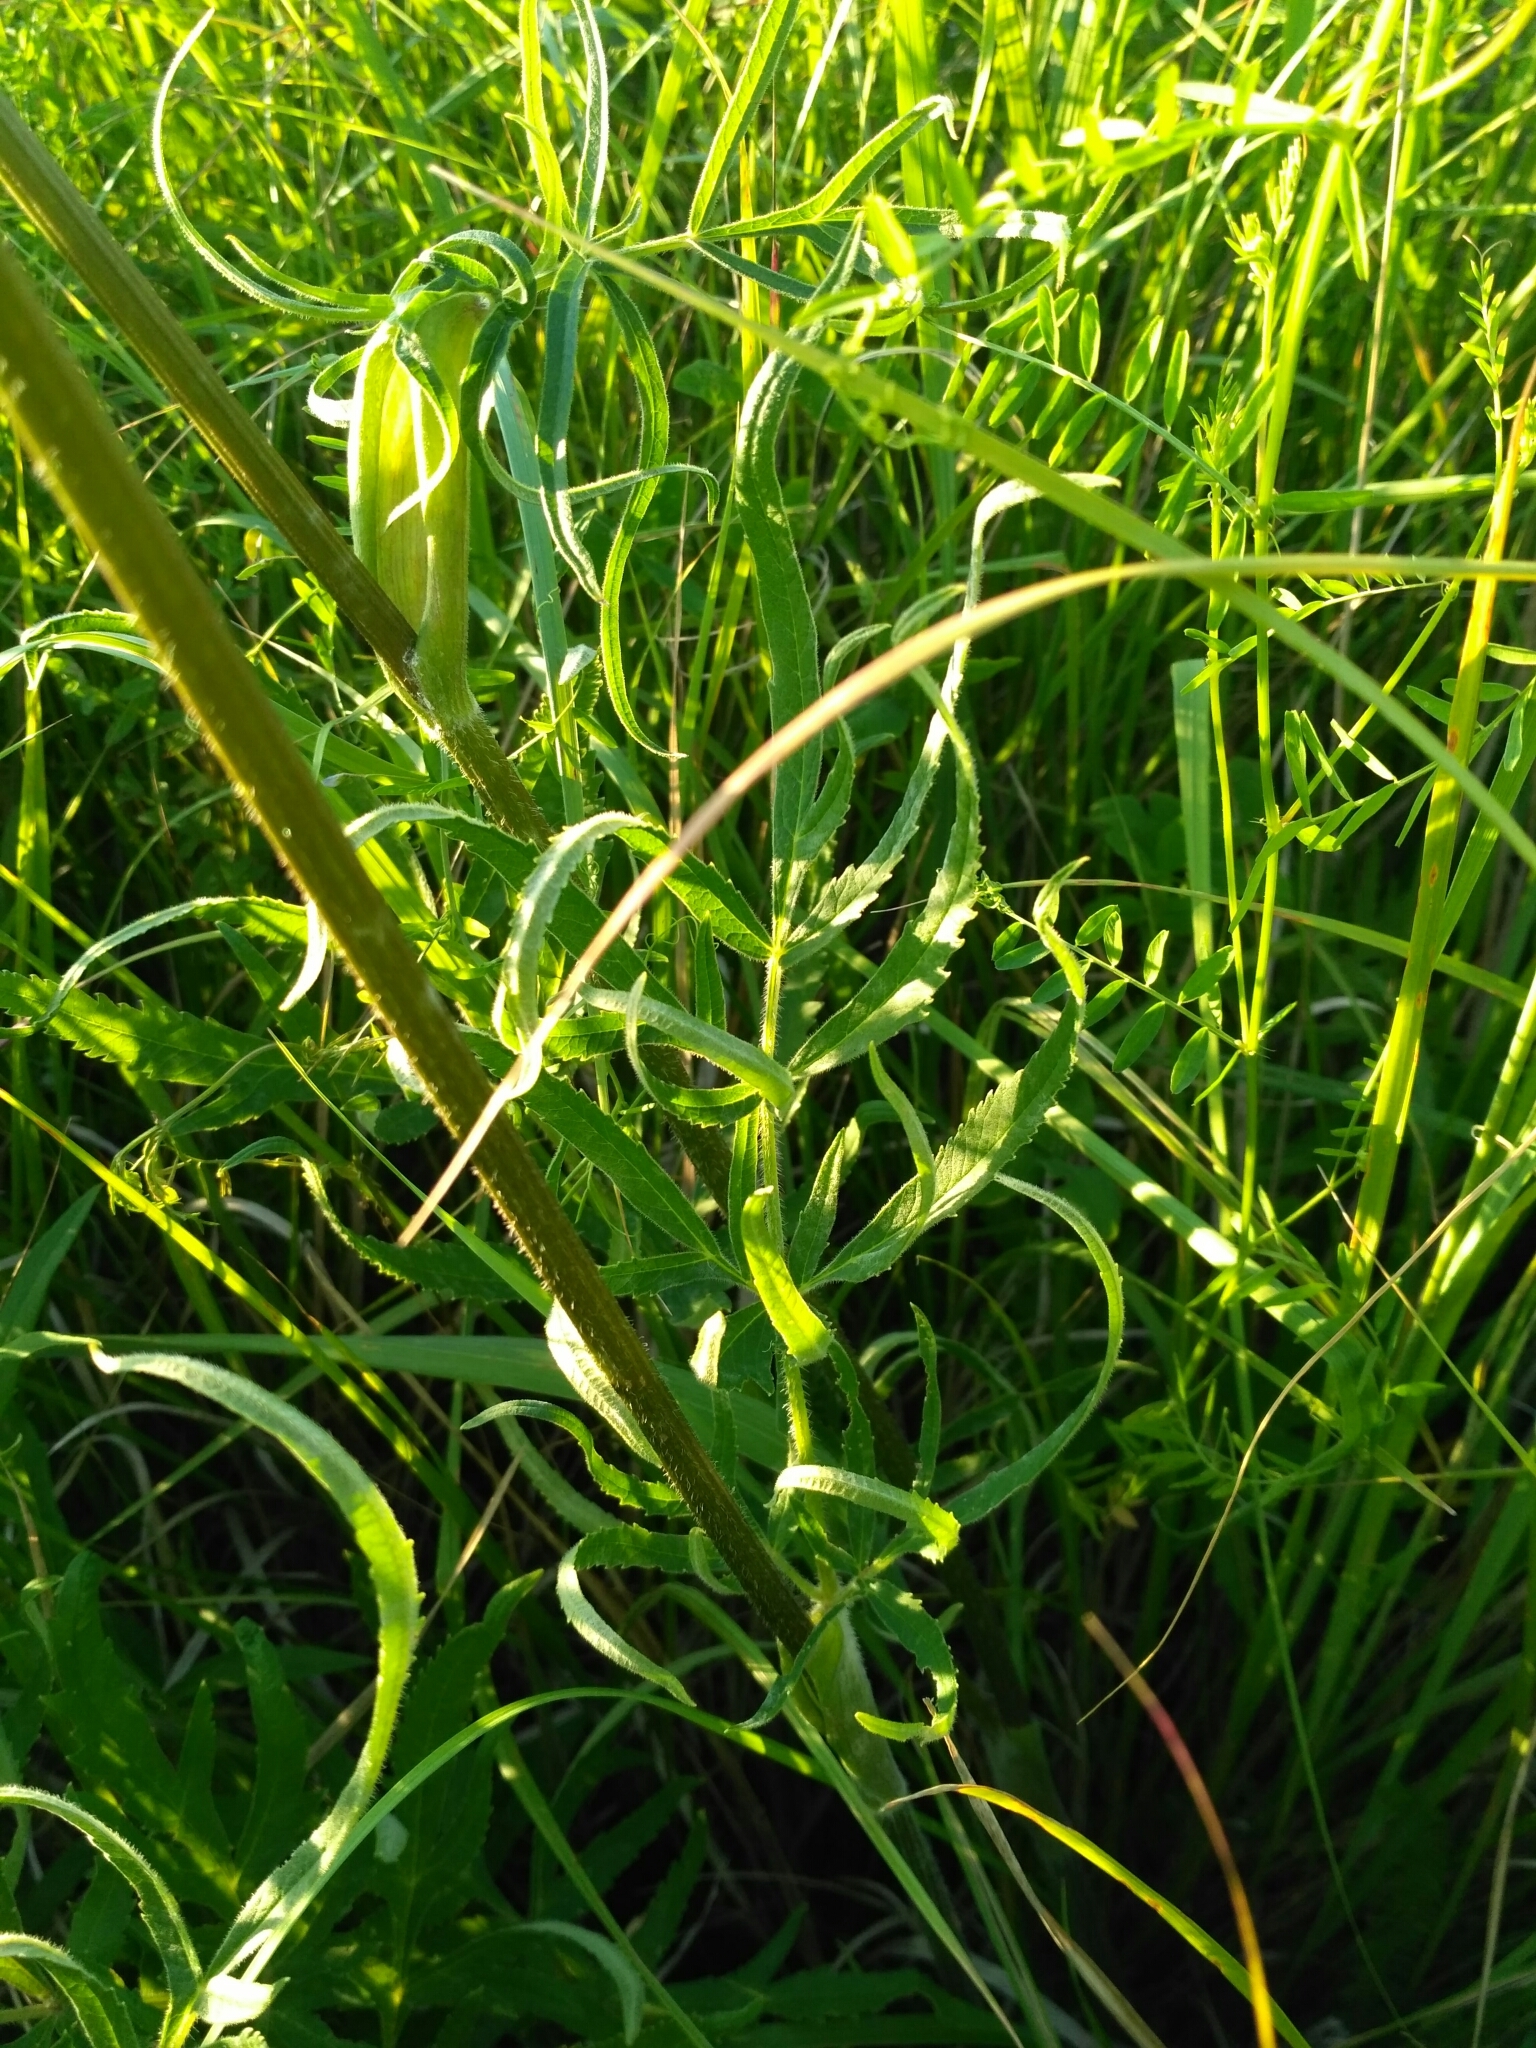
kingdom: Plantae
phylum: Tracheophyta
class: Magnoliopsida
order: Apiales
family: Apiaceae
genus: Heracleum
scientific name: Heracleum sphondylium
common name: Hogweed
